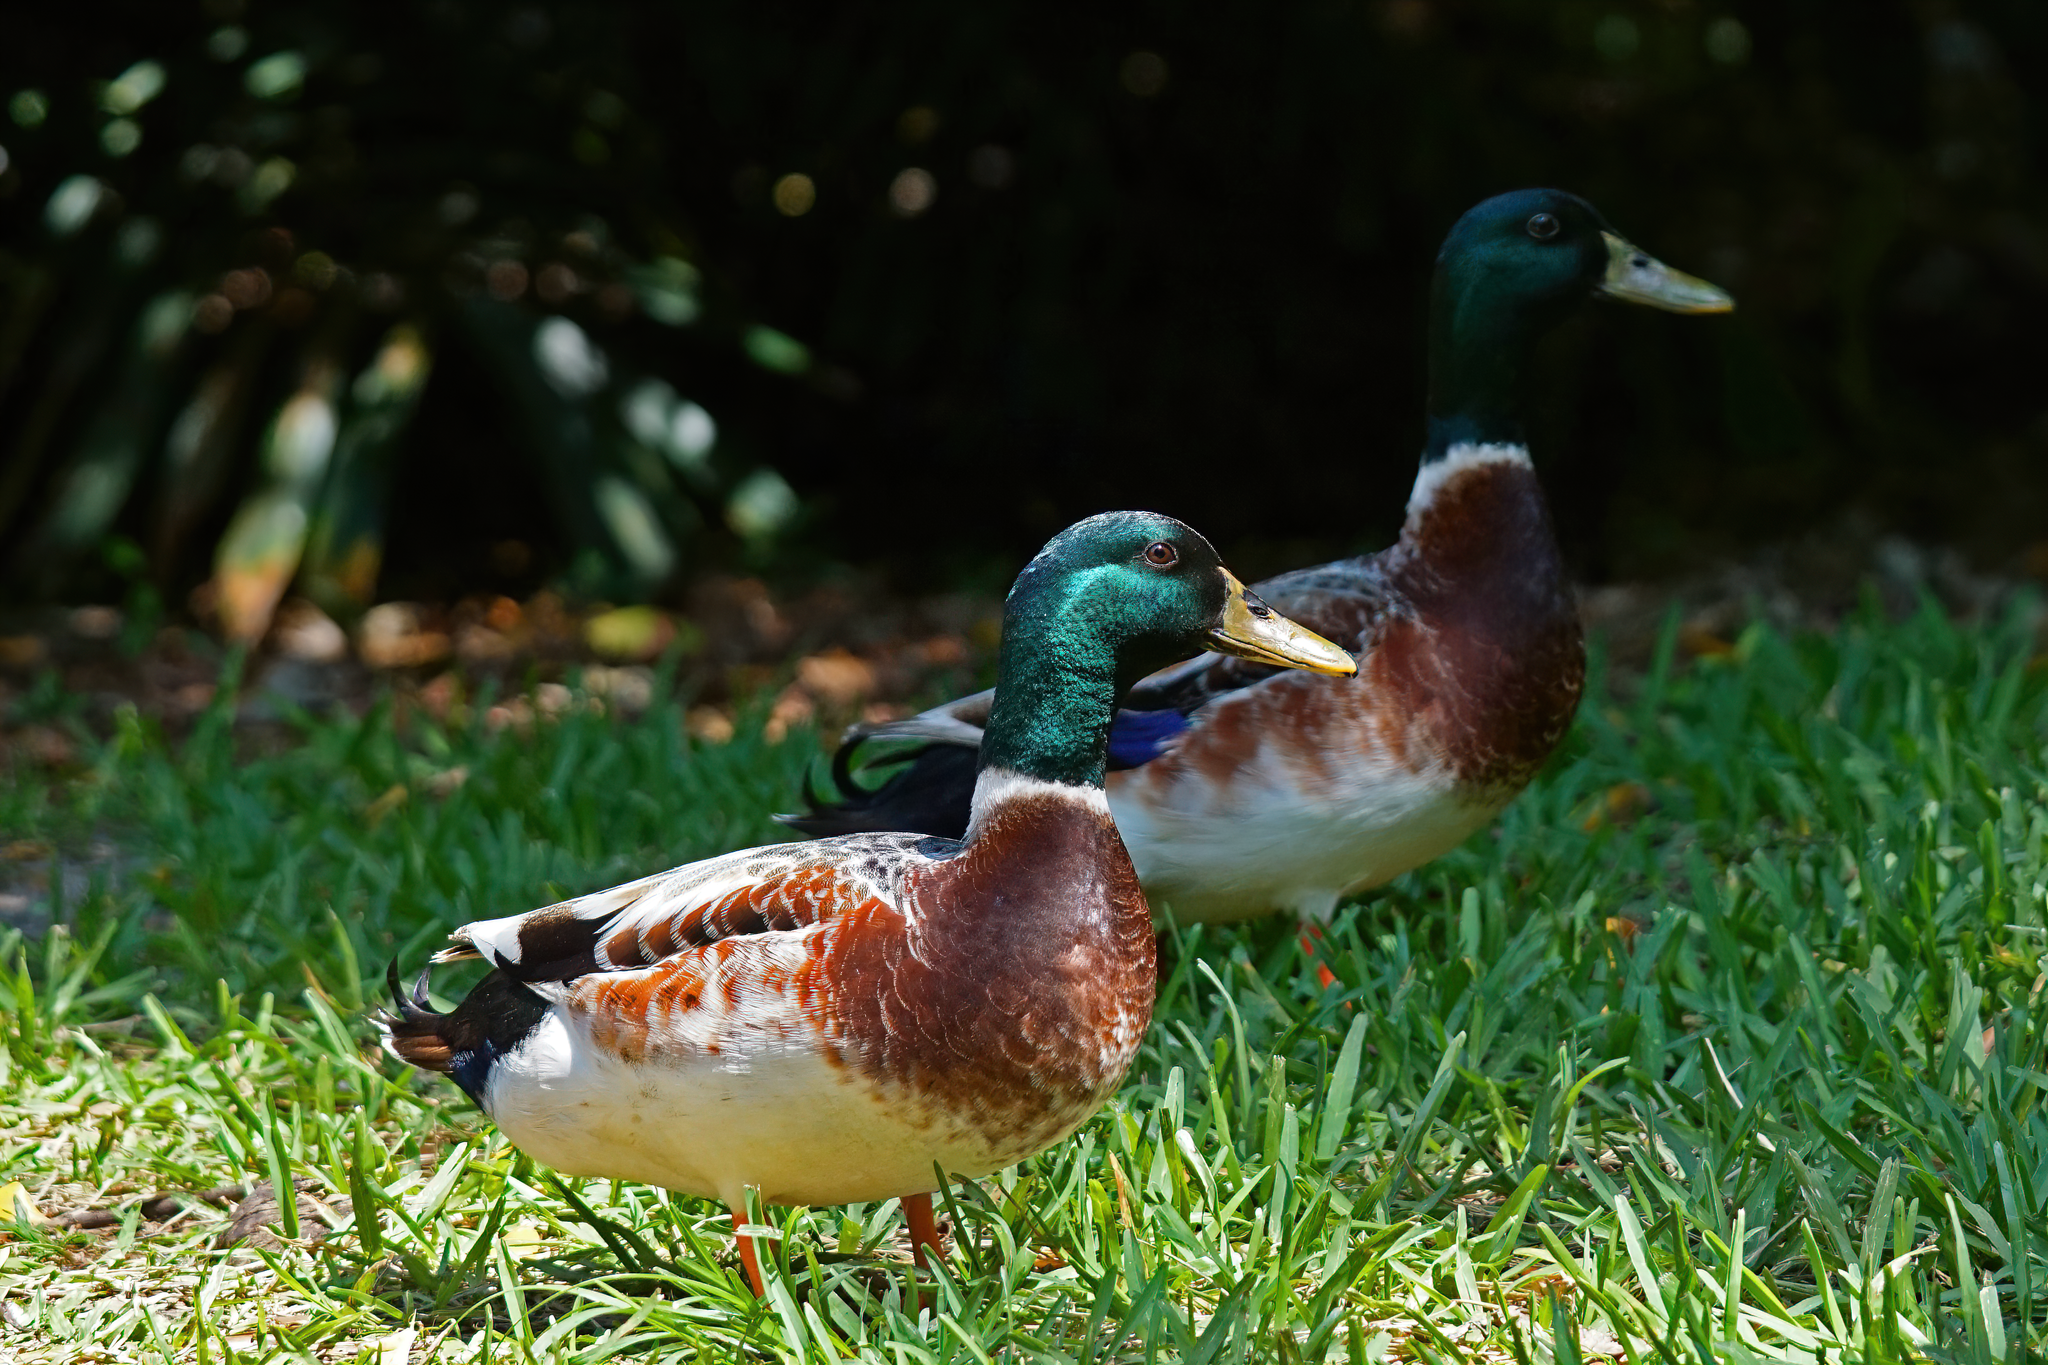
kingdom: Animalia
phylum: Chordata
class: Aves
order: Anseriformes
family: Anatidae
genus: Anas
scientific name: Anas platyrhynchos
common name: Mallard
